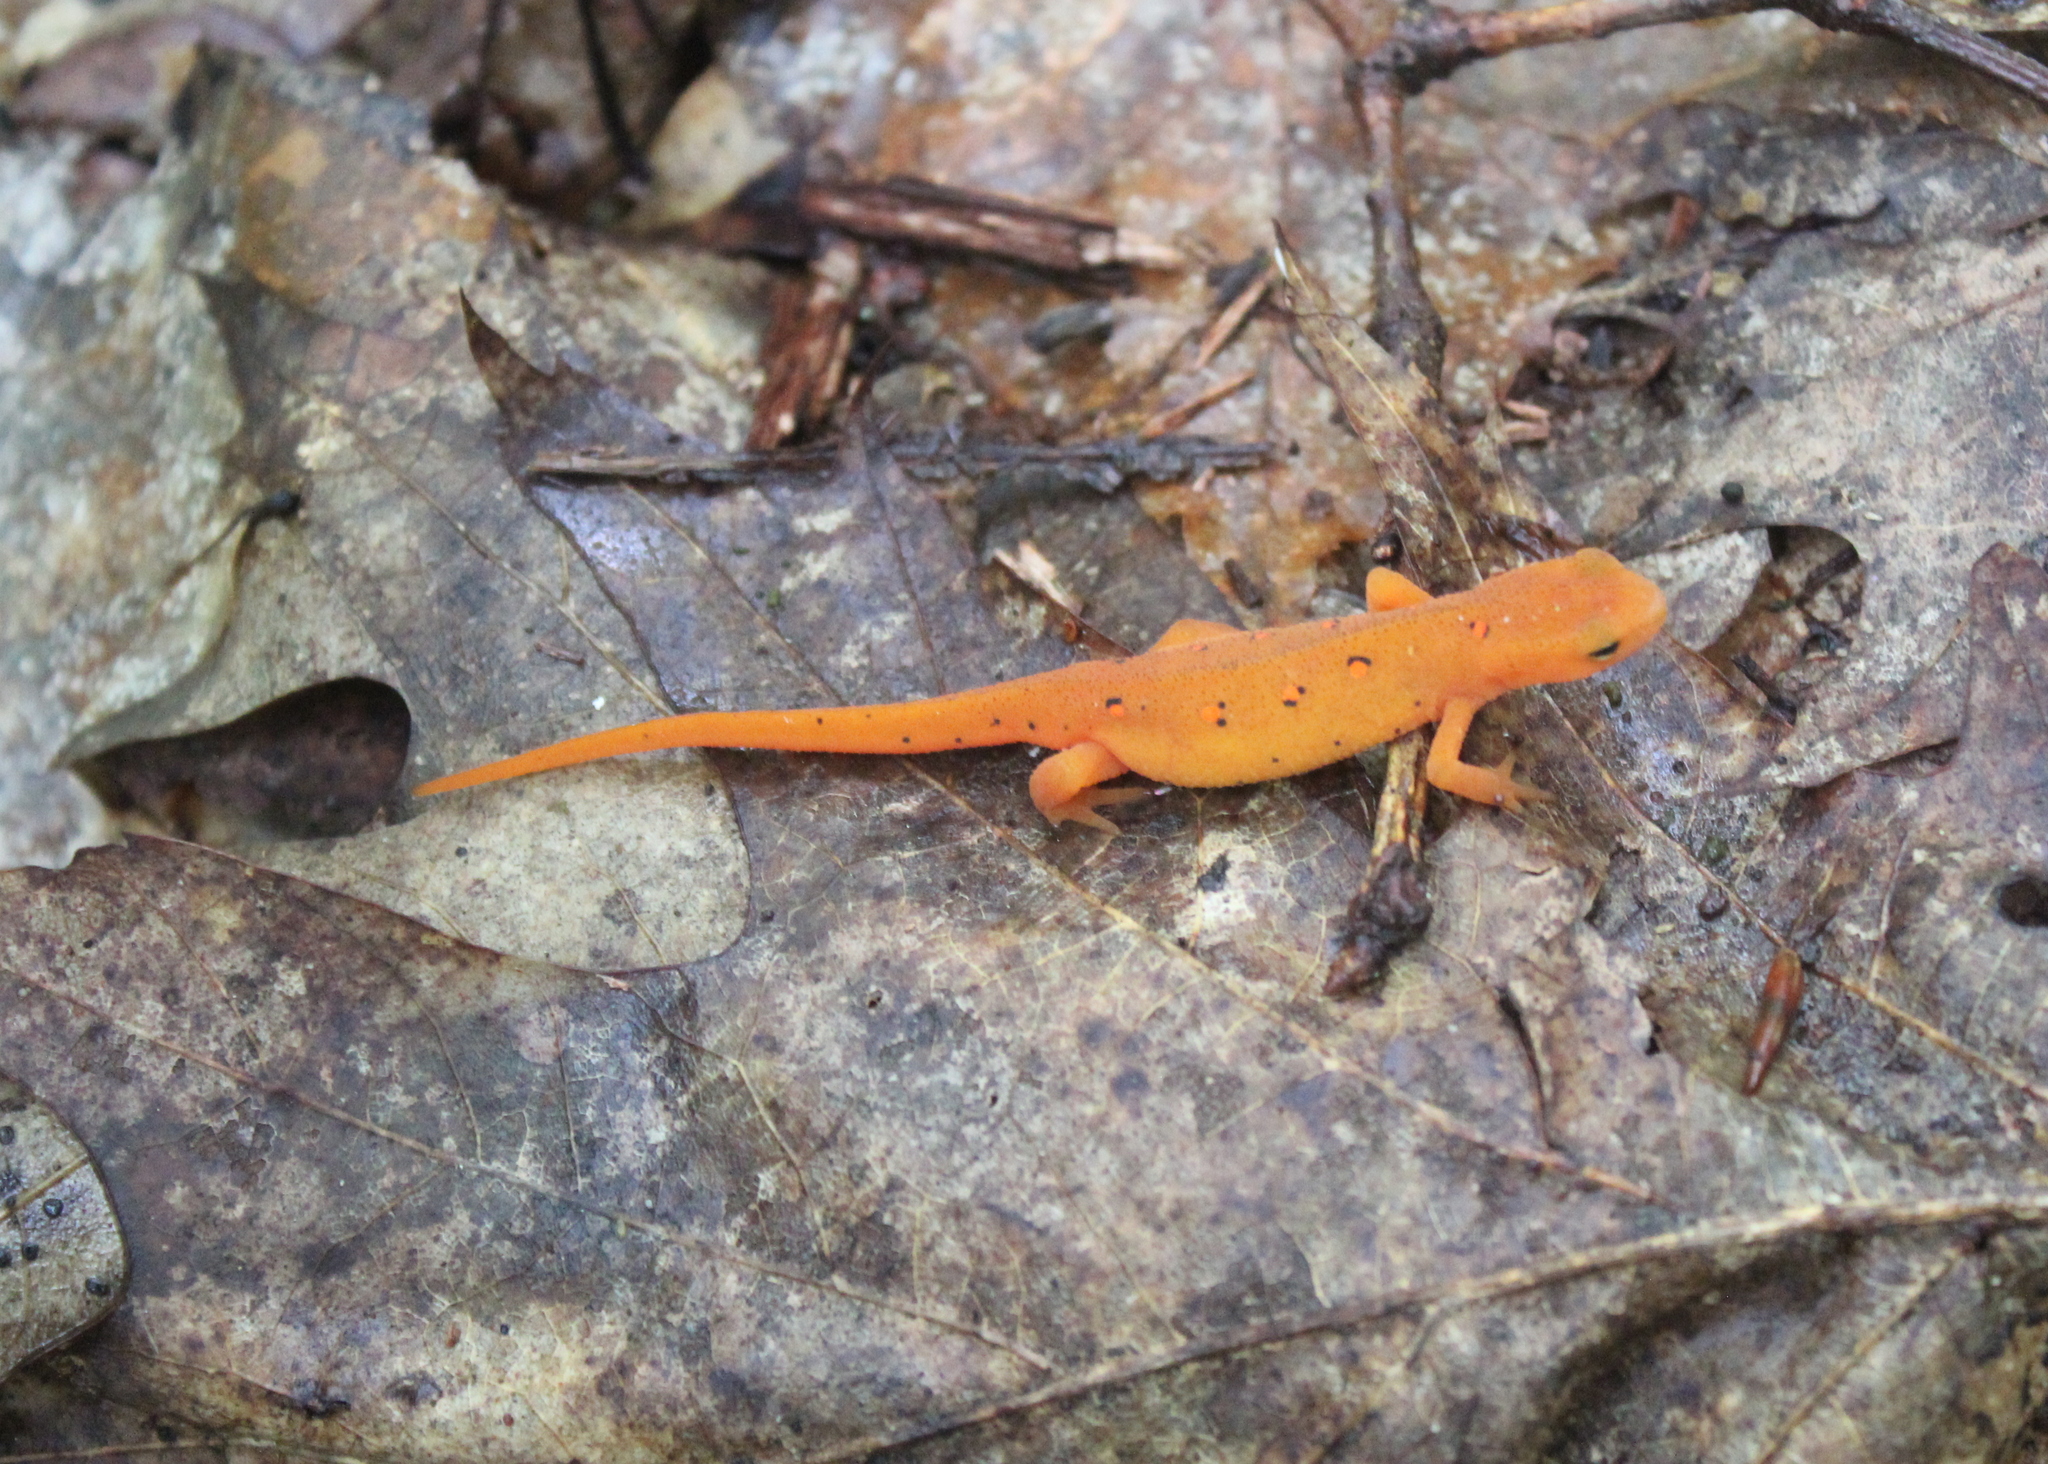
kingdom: Animalia
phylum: Chordata
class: Amphibia
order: Caudata
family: Salamandridae
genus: Notophthalmus
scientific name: Notophthalmus viridescens
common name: Eastern newt
